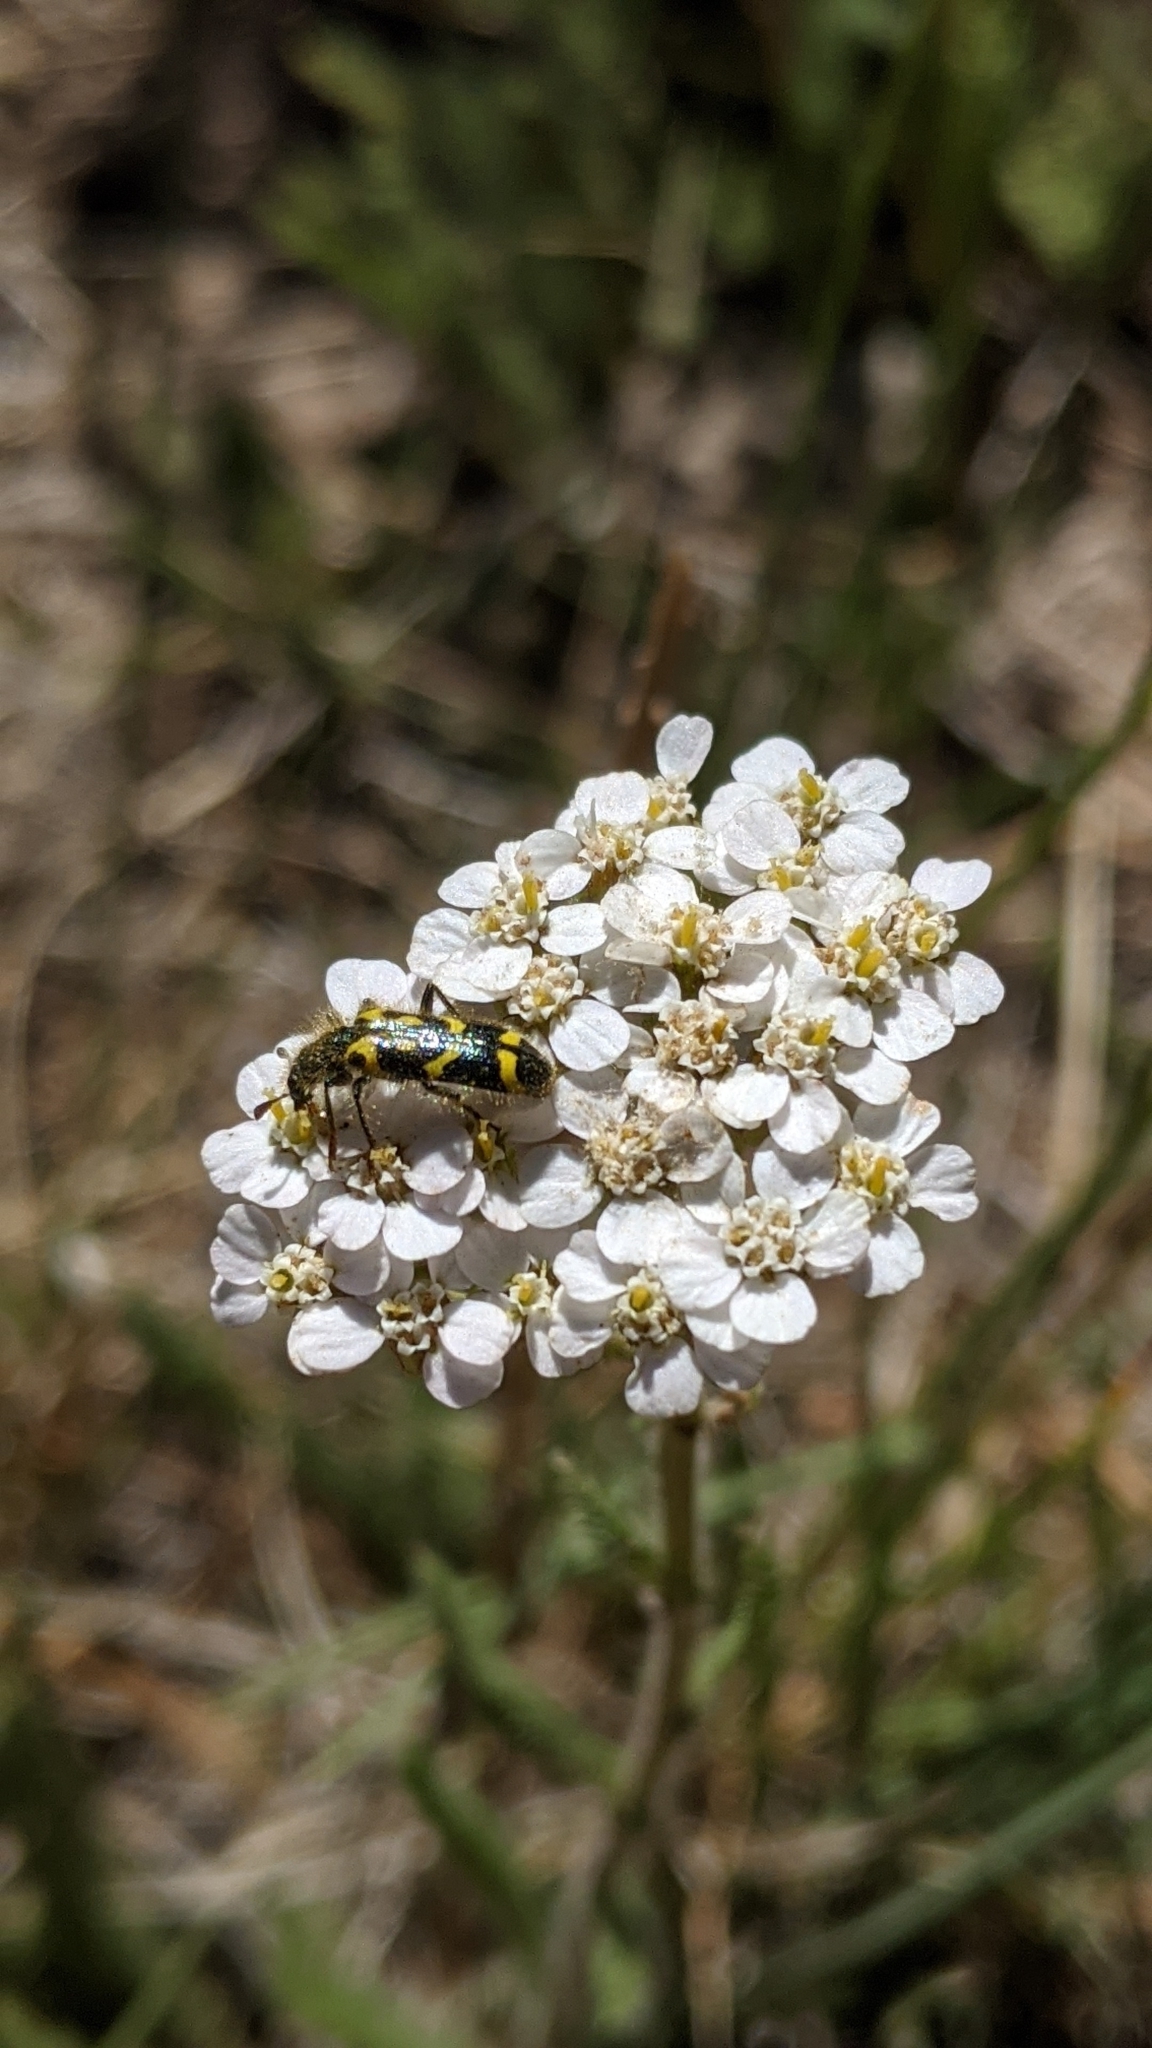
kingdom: Animalia
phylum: Arthropoda
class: Insecta
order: Coleoptera
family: Cleridae
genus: Trichodes
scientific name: Trichodes ornatus
